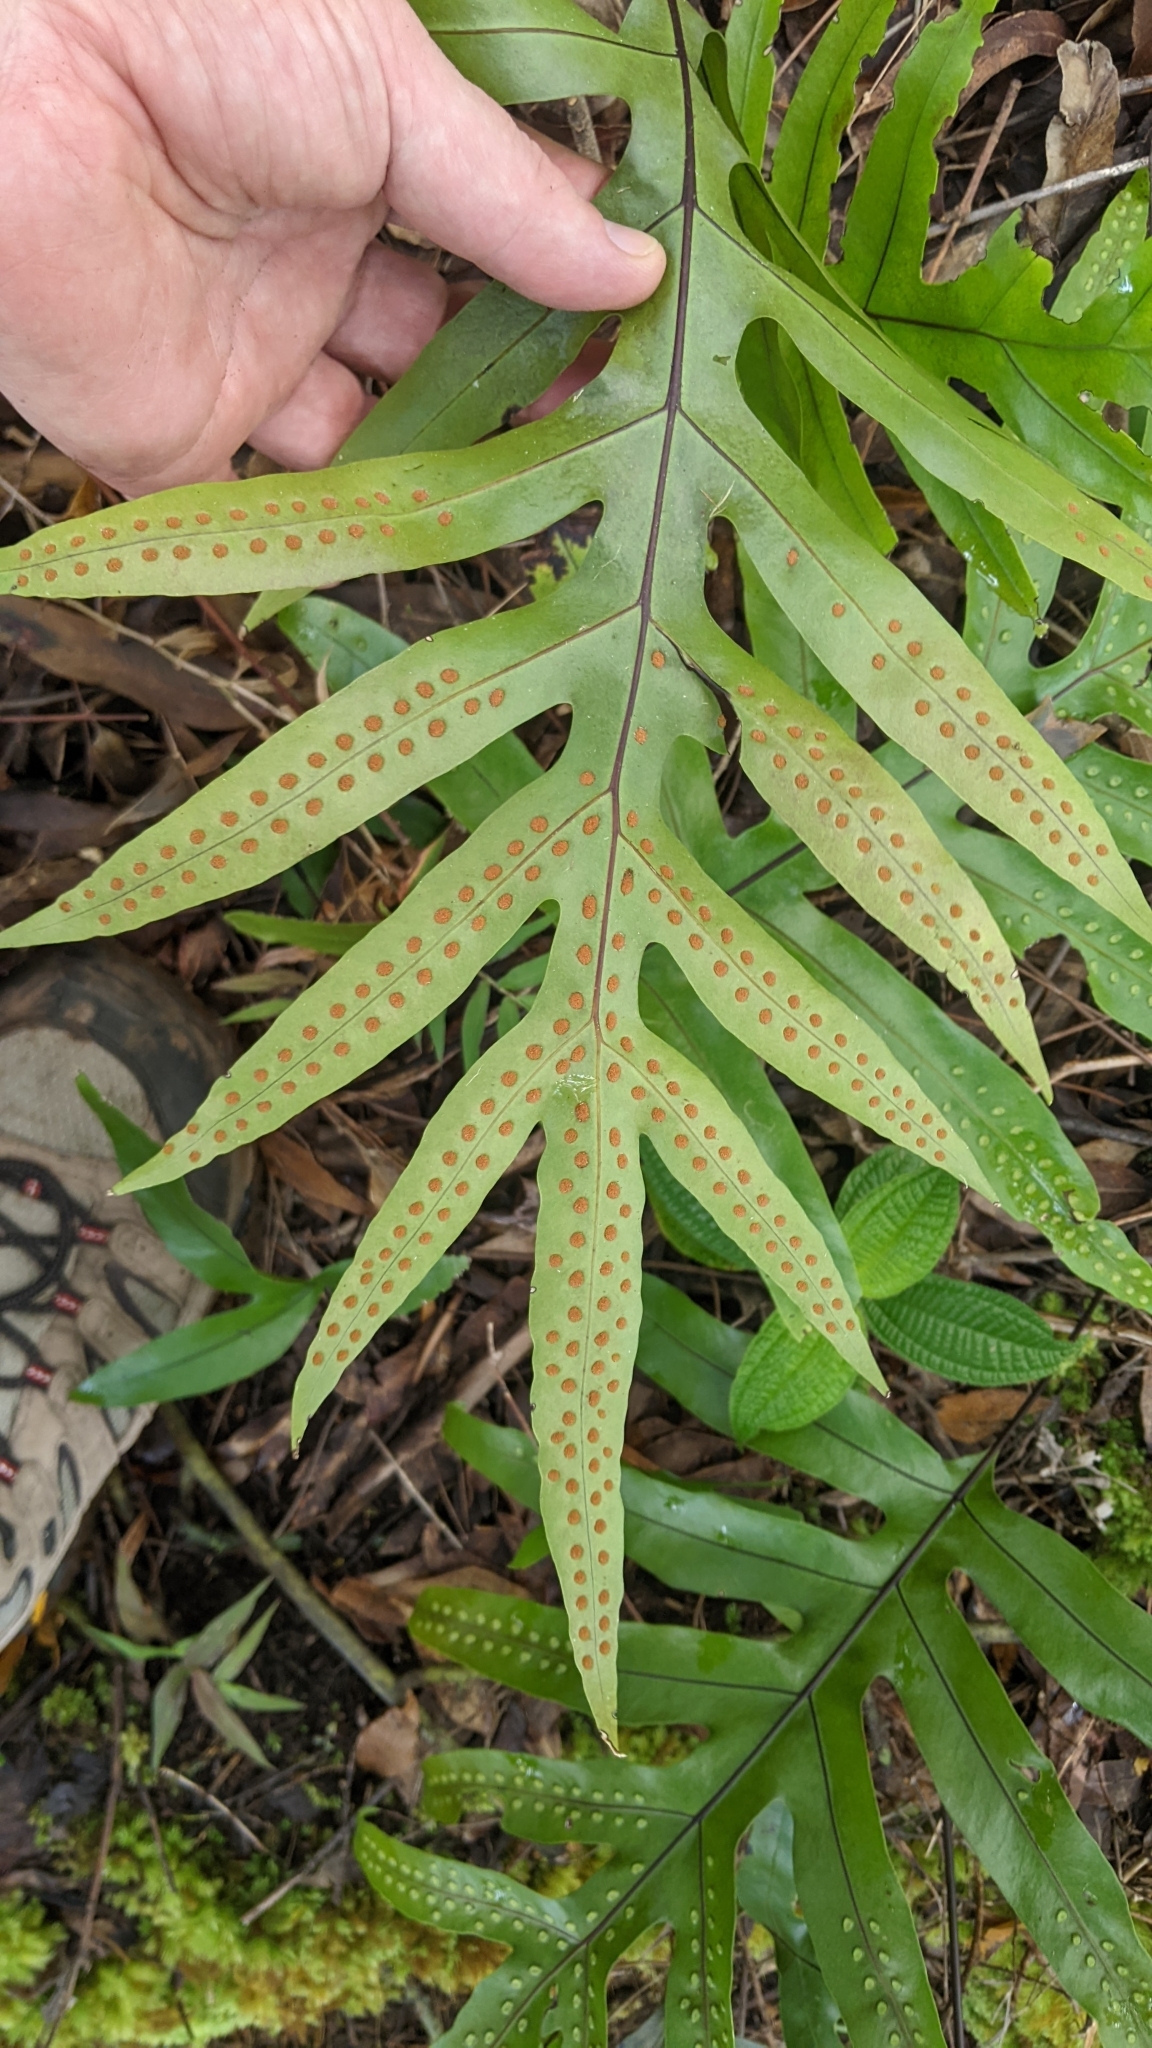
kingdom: Plantae
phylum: Tracheophyta
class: Polypodiopsida
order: Polypodiales
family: Polypodiaceae
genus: Microsorum
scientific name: Microsorum grossum
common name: Musk fern
